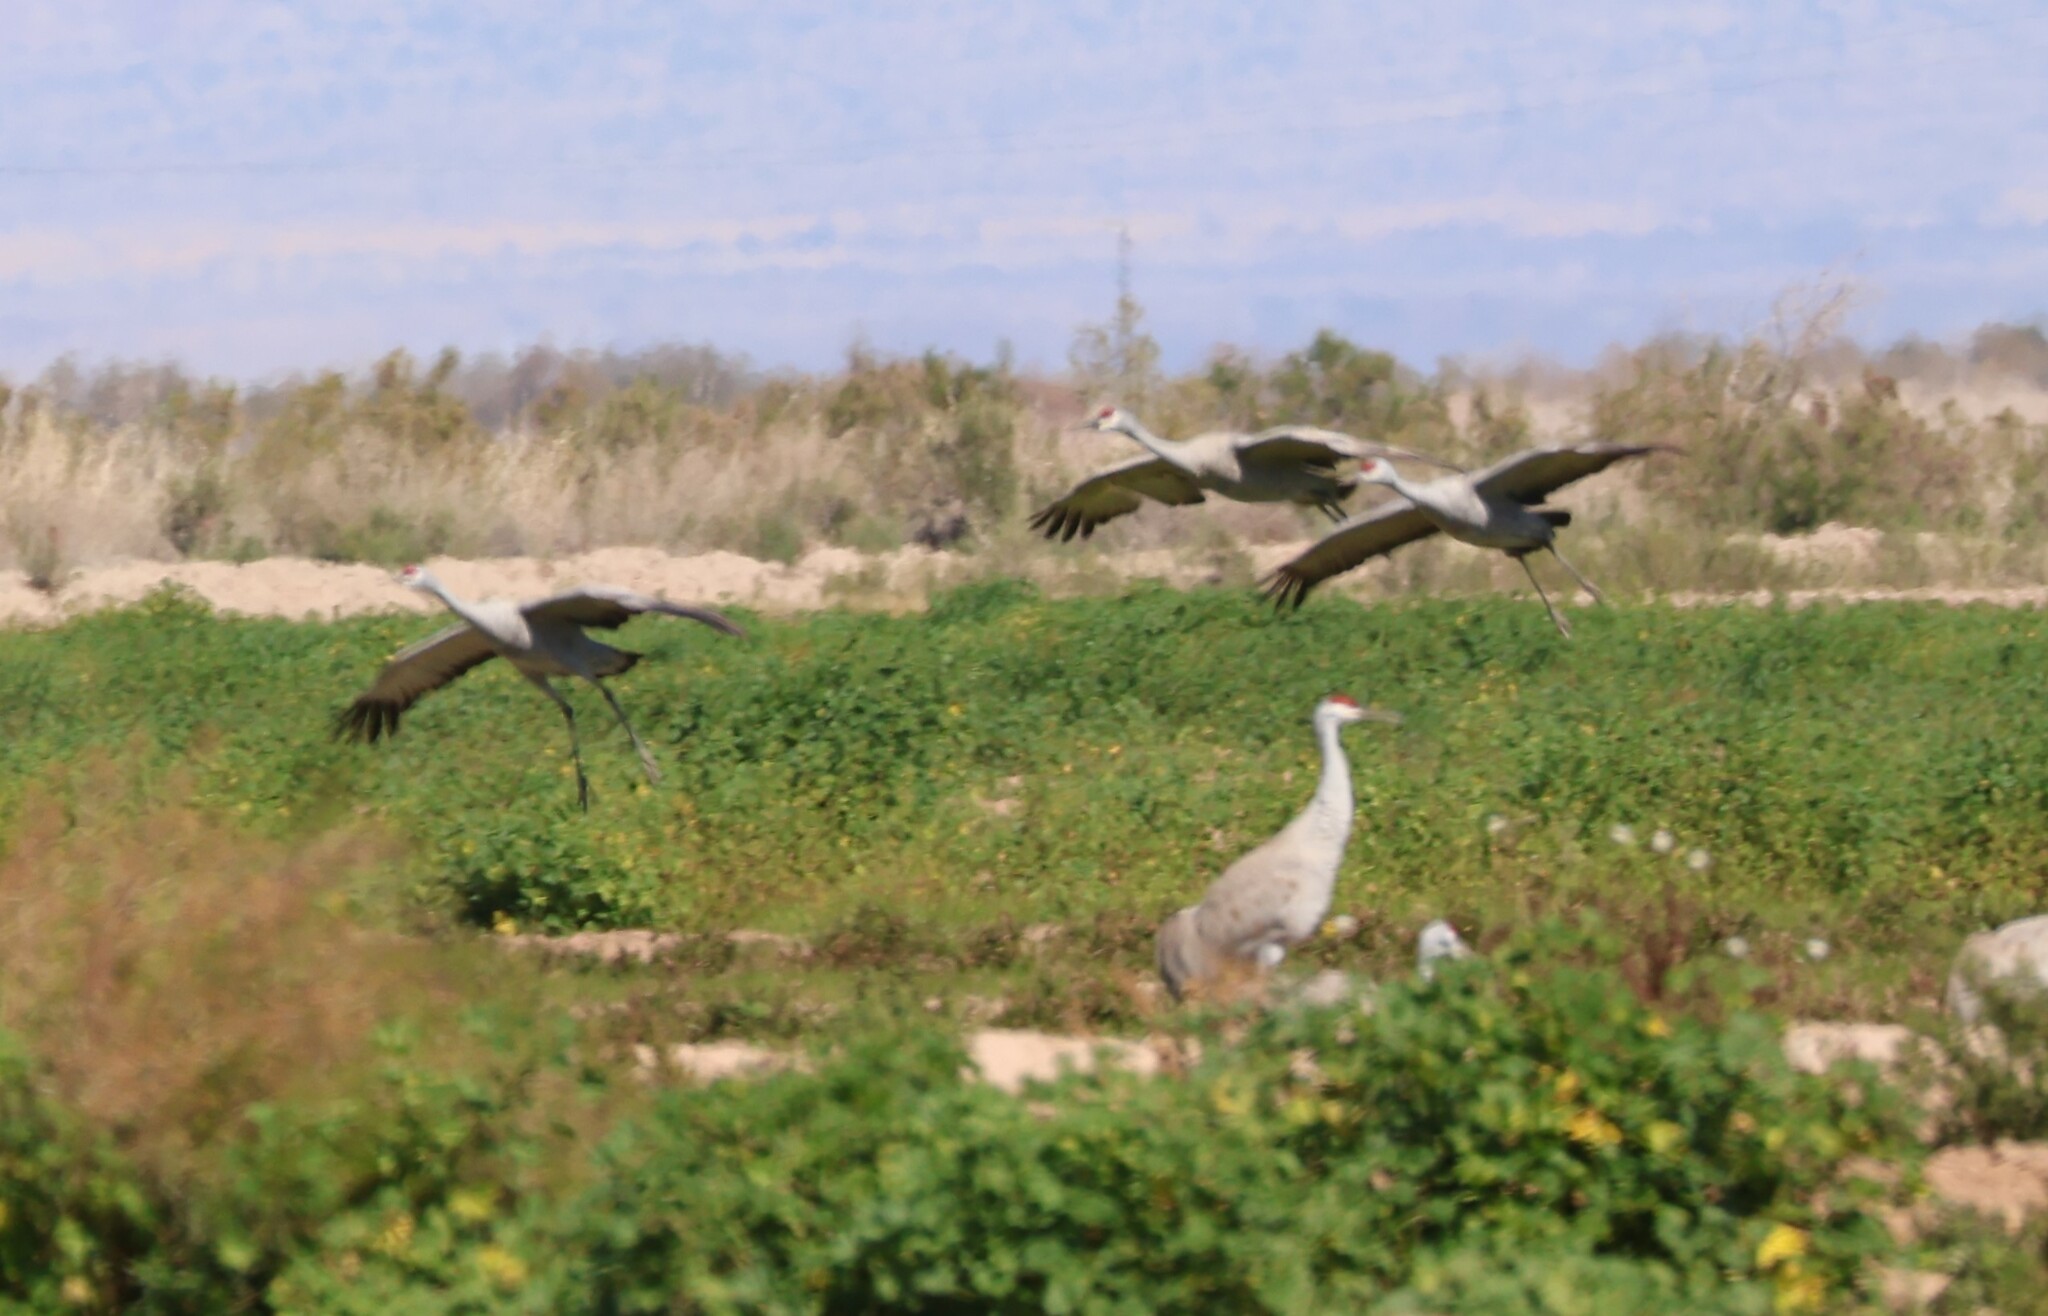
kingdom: Animalia
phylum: Chordata
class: Aves
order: Gruiformes
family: Gruidae
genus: Grus
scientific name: Grus canadensis
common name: Sandhill crane
